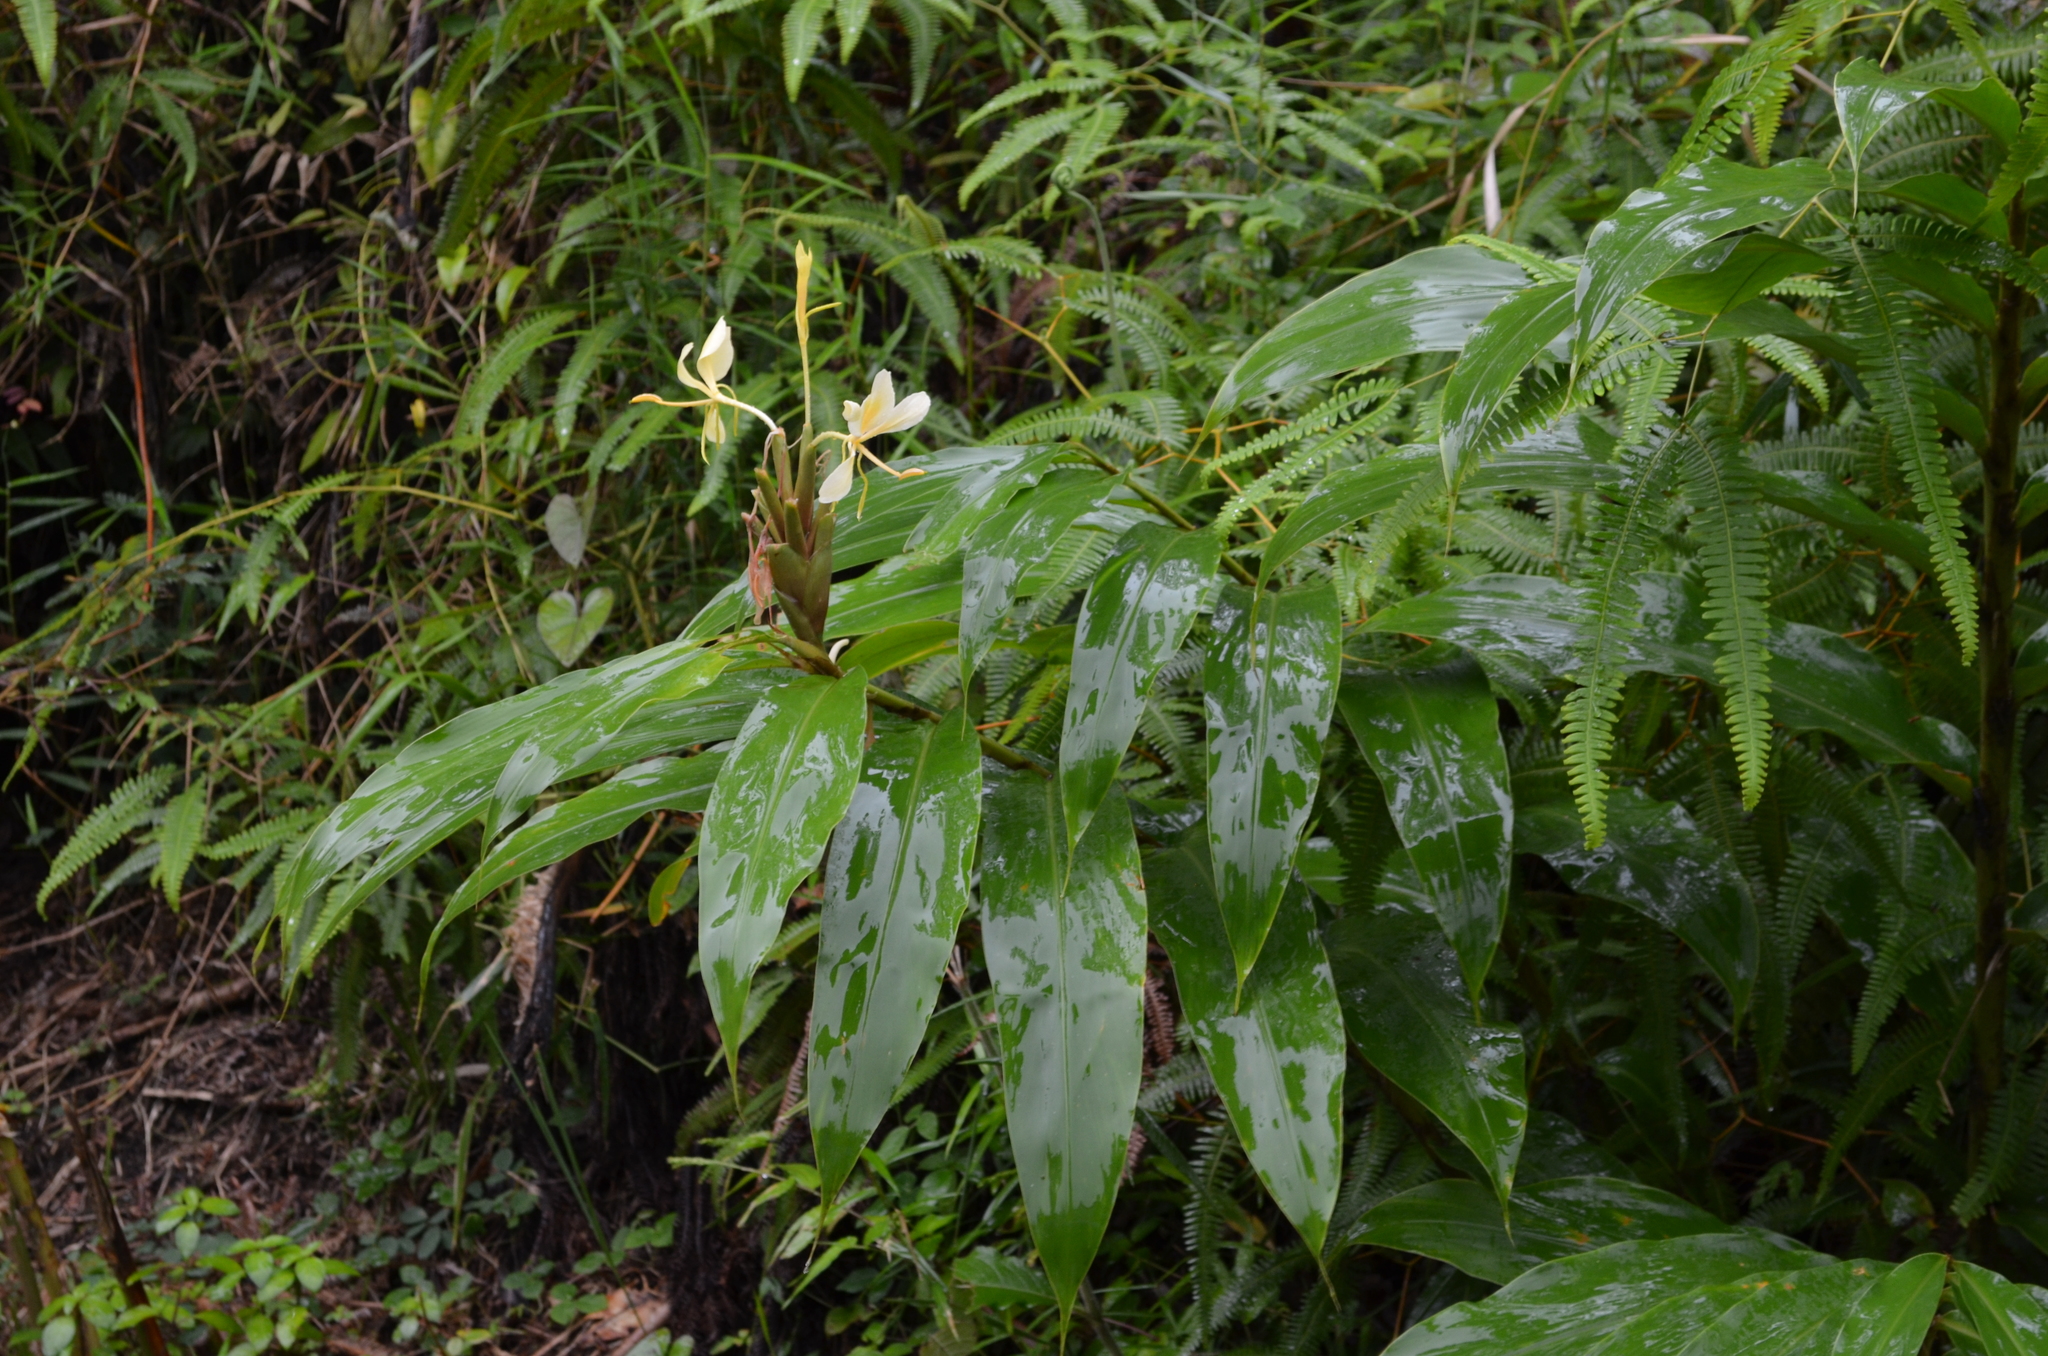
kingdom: Plantae
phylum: Tracheophyta
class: Liliopsida
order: Zingiberales
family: Zingiberaceae
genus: Hedychium
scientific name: Hedychium coronarium
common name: White garland-lily
